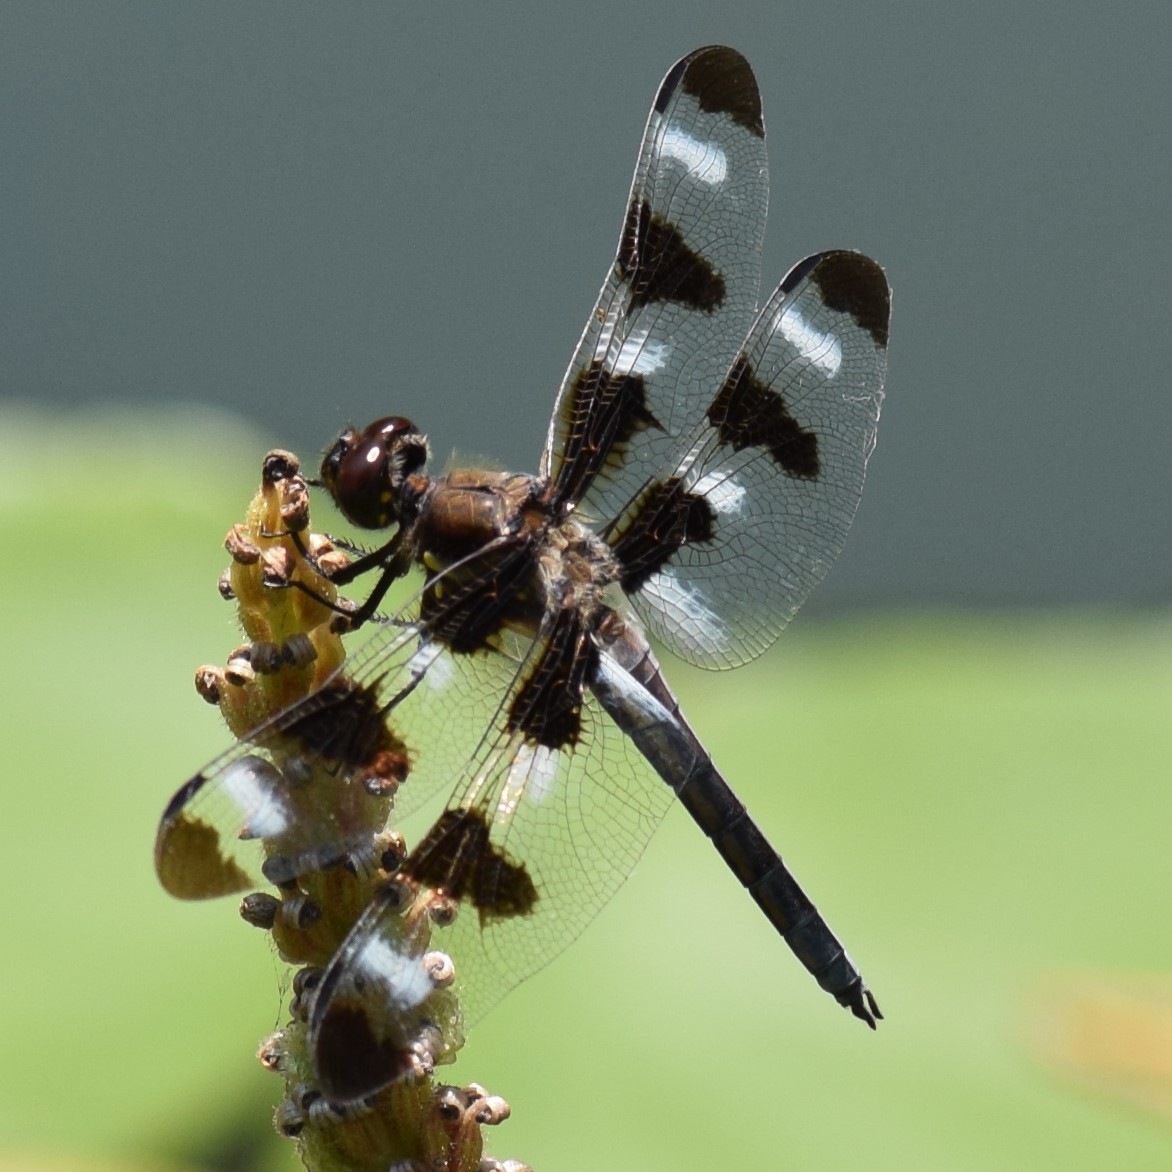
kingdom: Animalia
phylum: Arthropoda
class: Insecta
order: Odonata
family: Libellulidae
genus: Libellula
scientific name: Libellula pulchella
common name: Twelve-spotted skimmer
